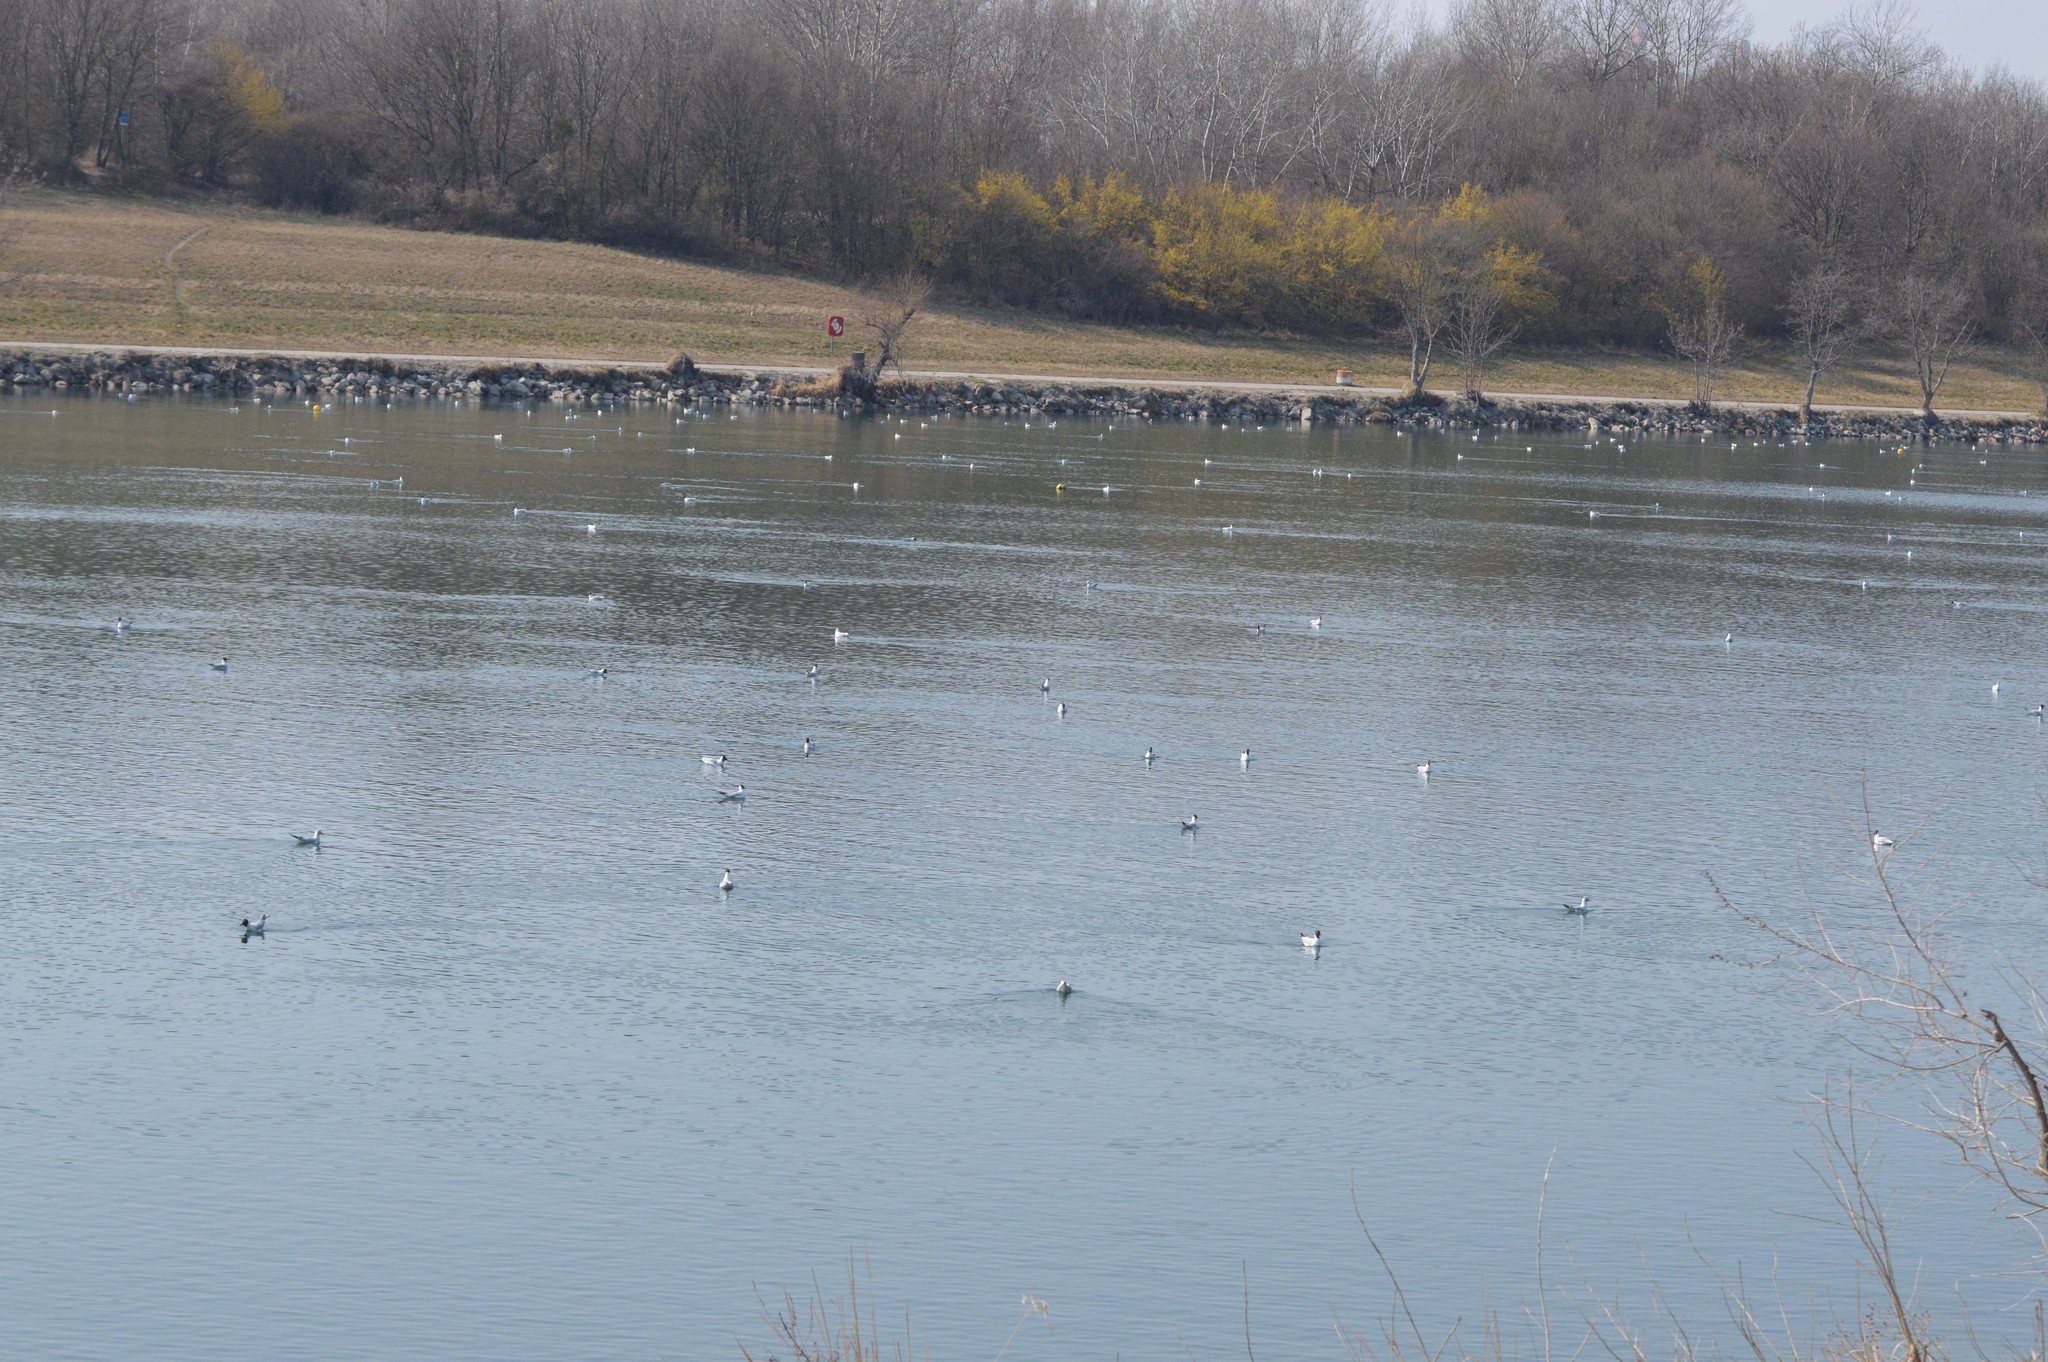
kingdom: Animalia
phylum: Chordata
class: Aves
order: Charadriiformes
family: Laridae
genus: Chroicocephalus
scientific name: Chroicocephalus ridibundus
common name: Black-headed gull
